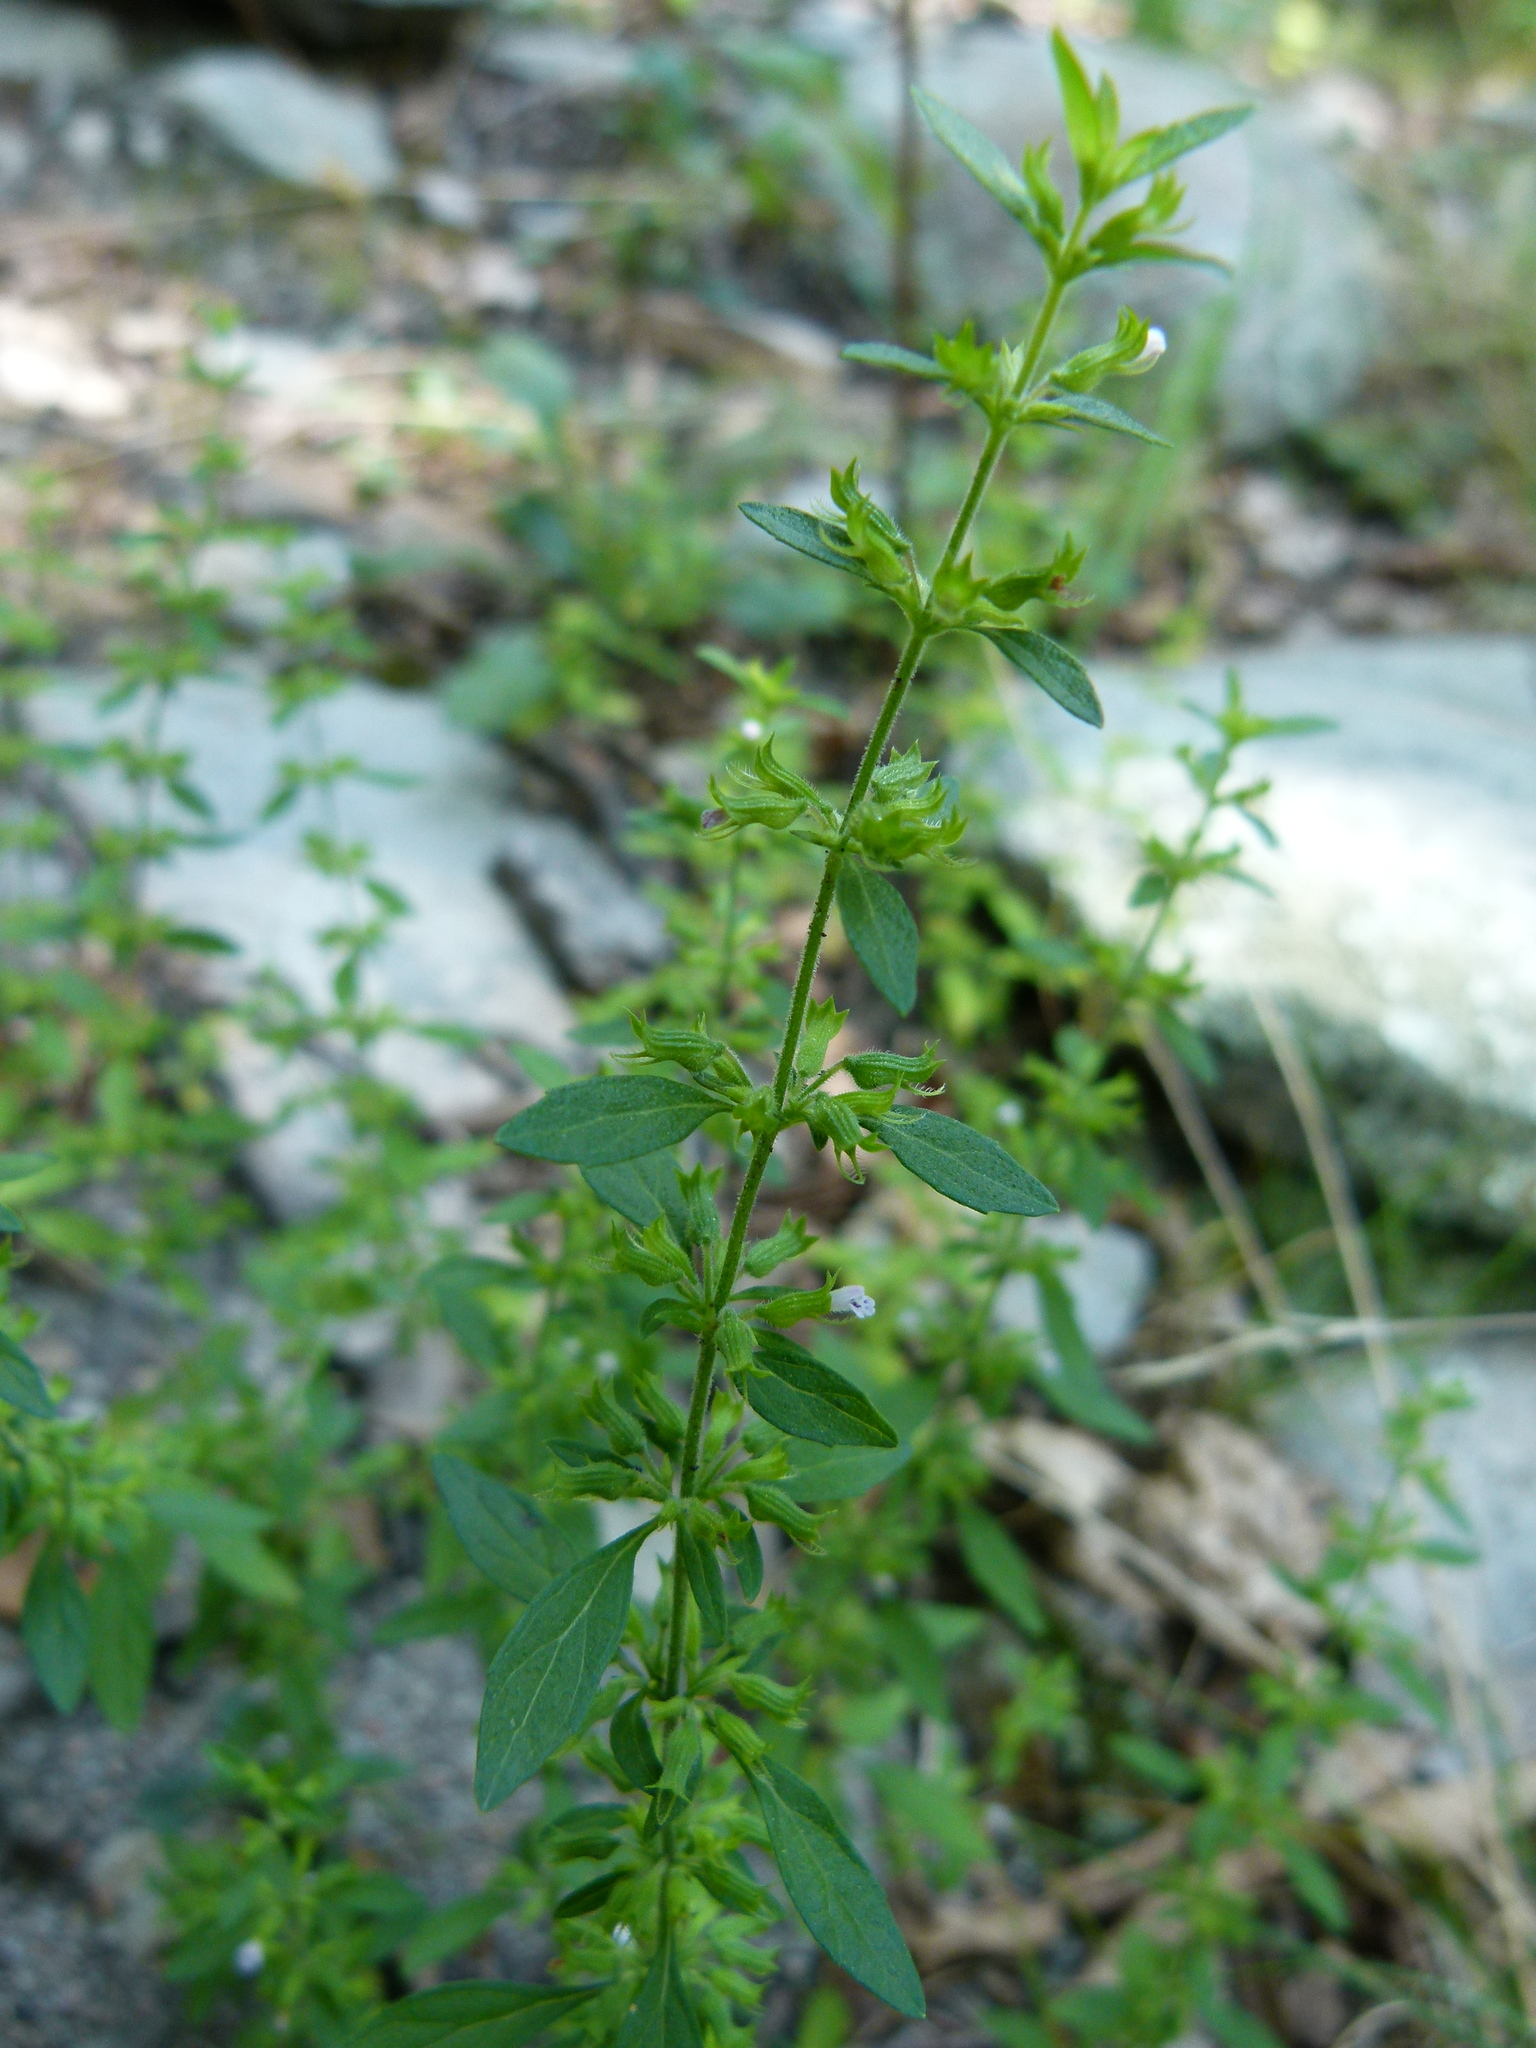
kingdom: Plantae
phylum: Tracheophyta
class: Magnoliopsida
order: Lamiales
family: Lamiaceae
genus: Hedeoma
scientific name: Hedeoma pulegioides
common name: American false pennyroyal
